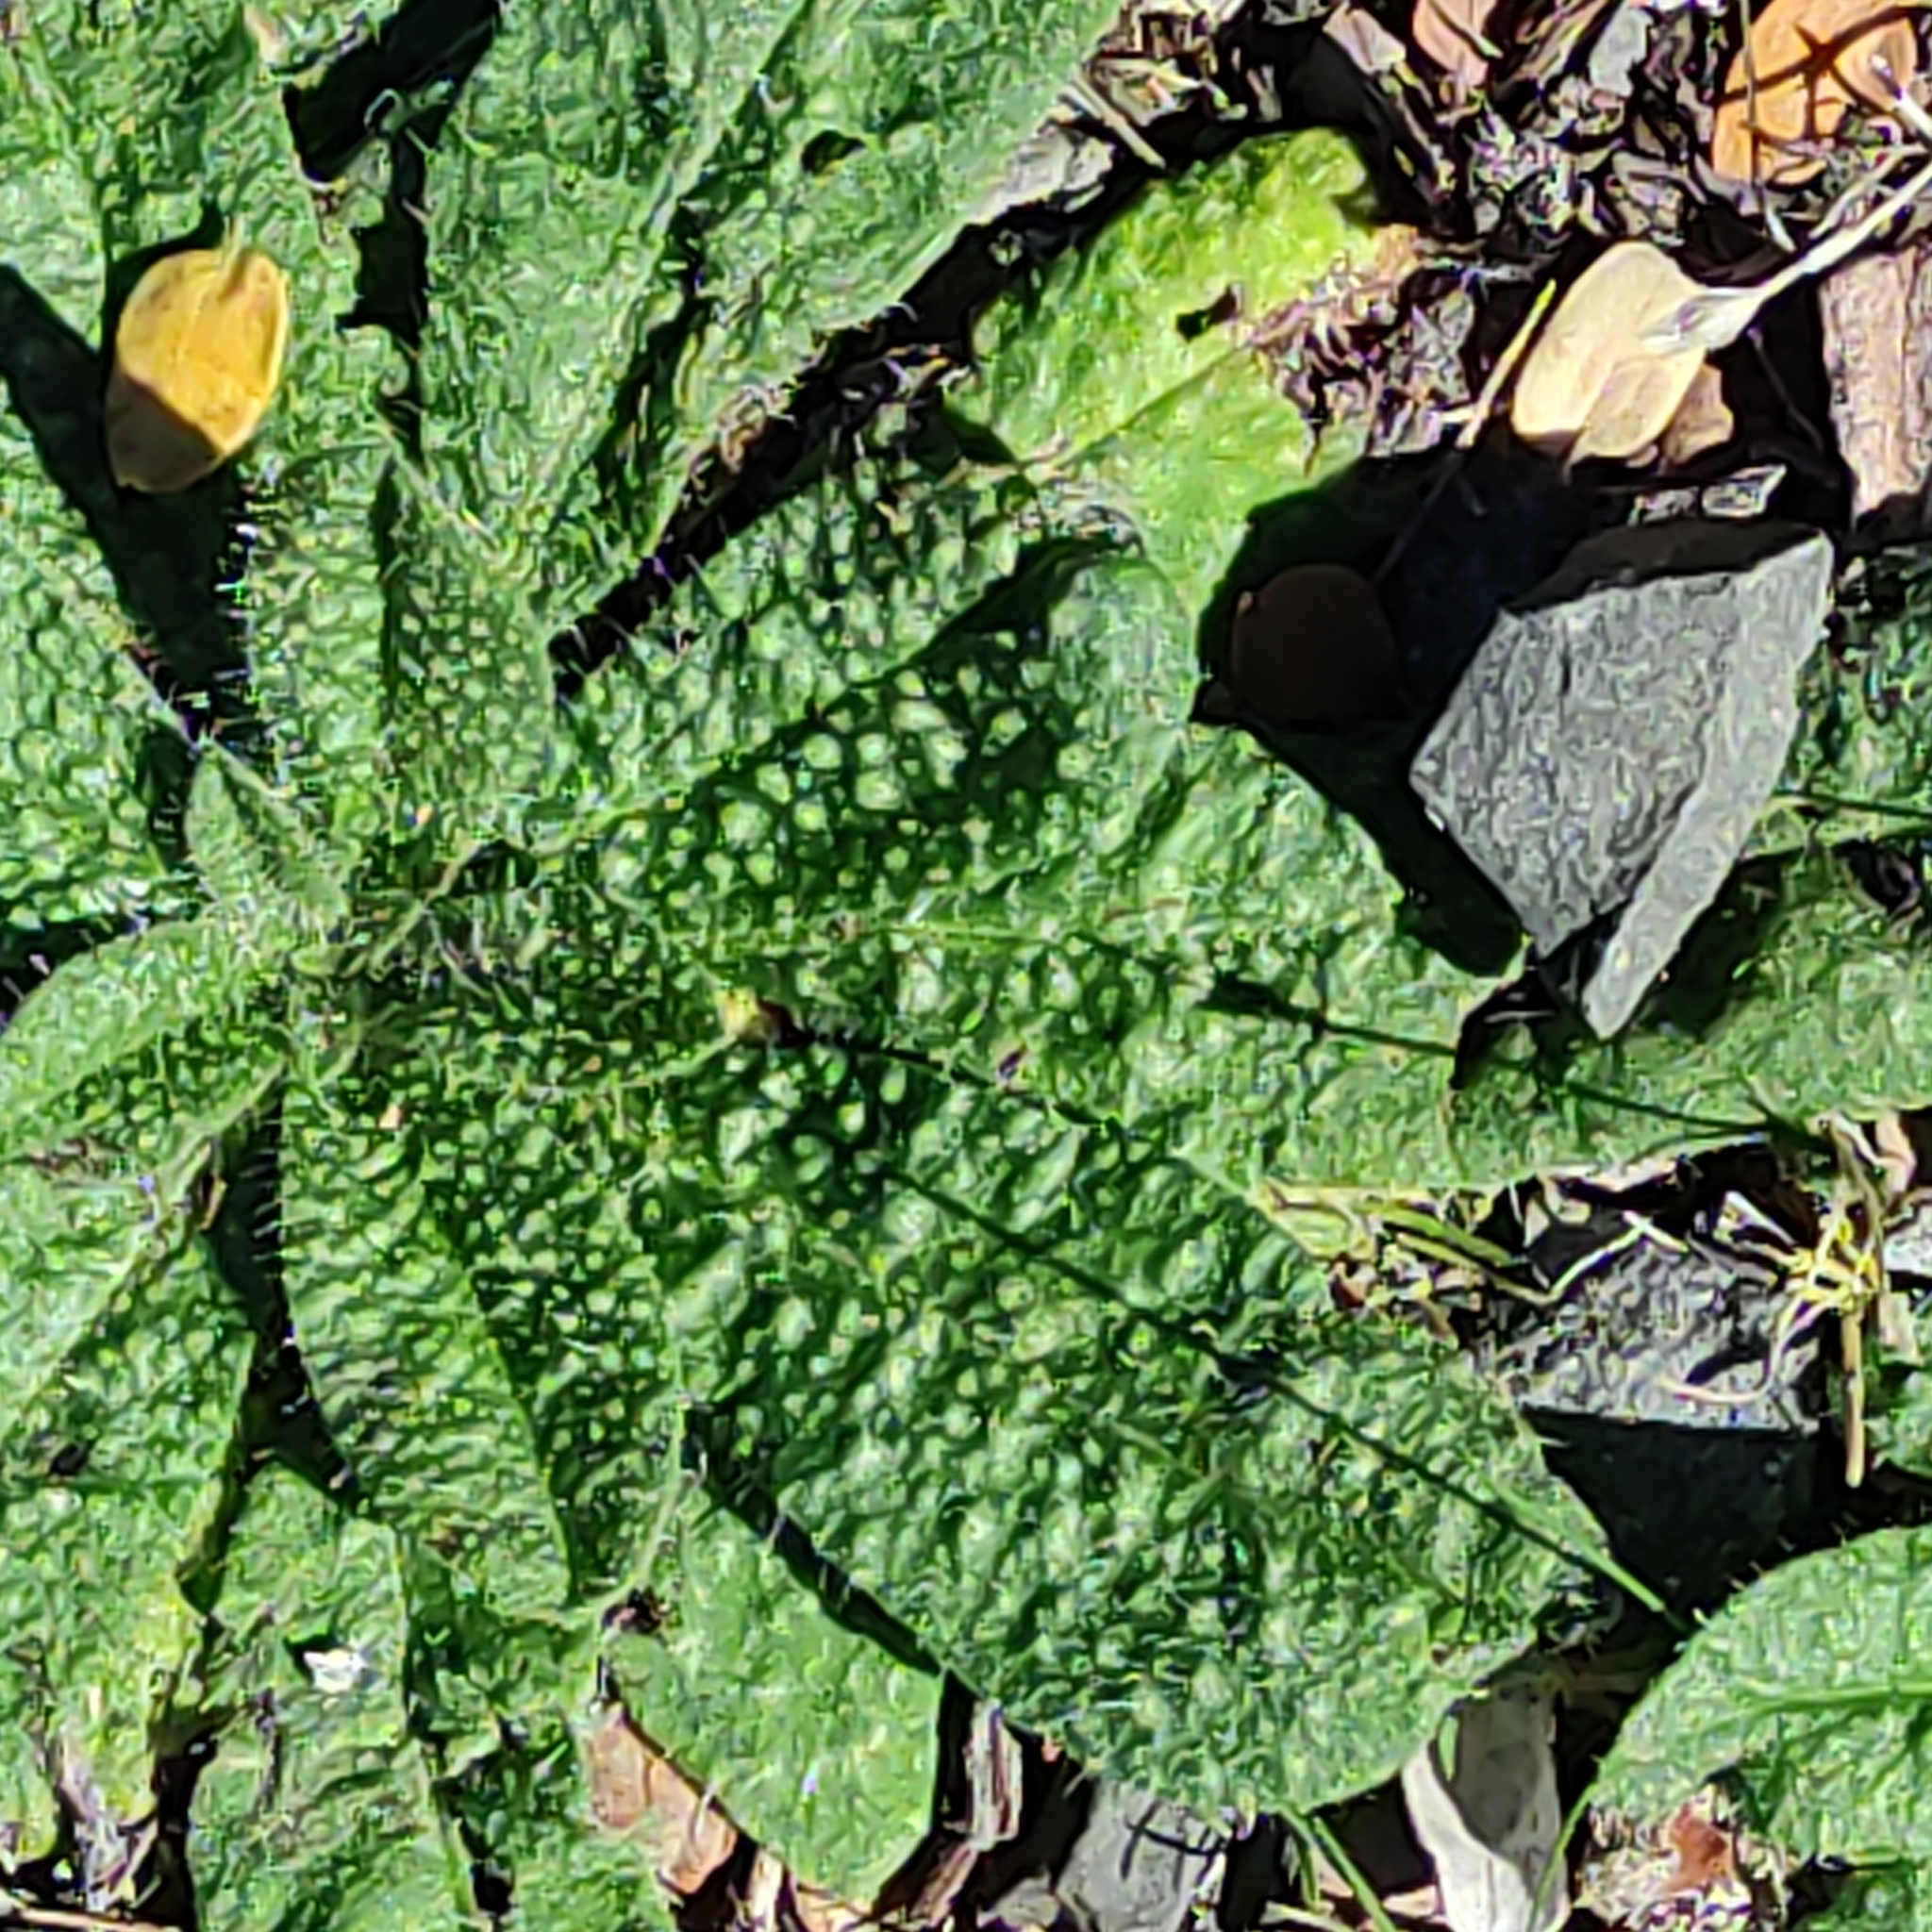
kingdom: Plantae
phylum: Tracheophyta
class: Magnoliopsida
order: Asterales
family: Asteraceae
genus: Helminthotheca
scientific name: Helminthotheca echioides
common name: Ox-tongue
